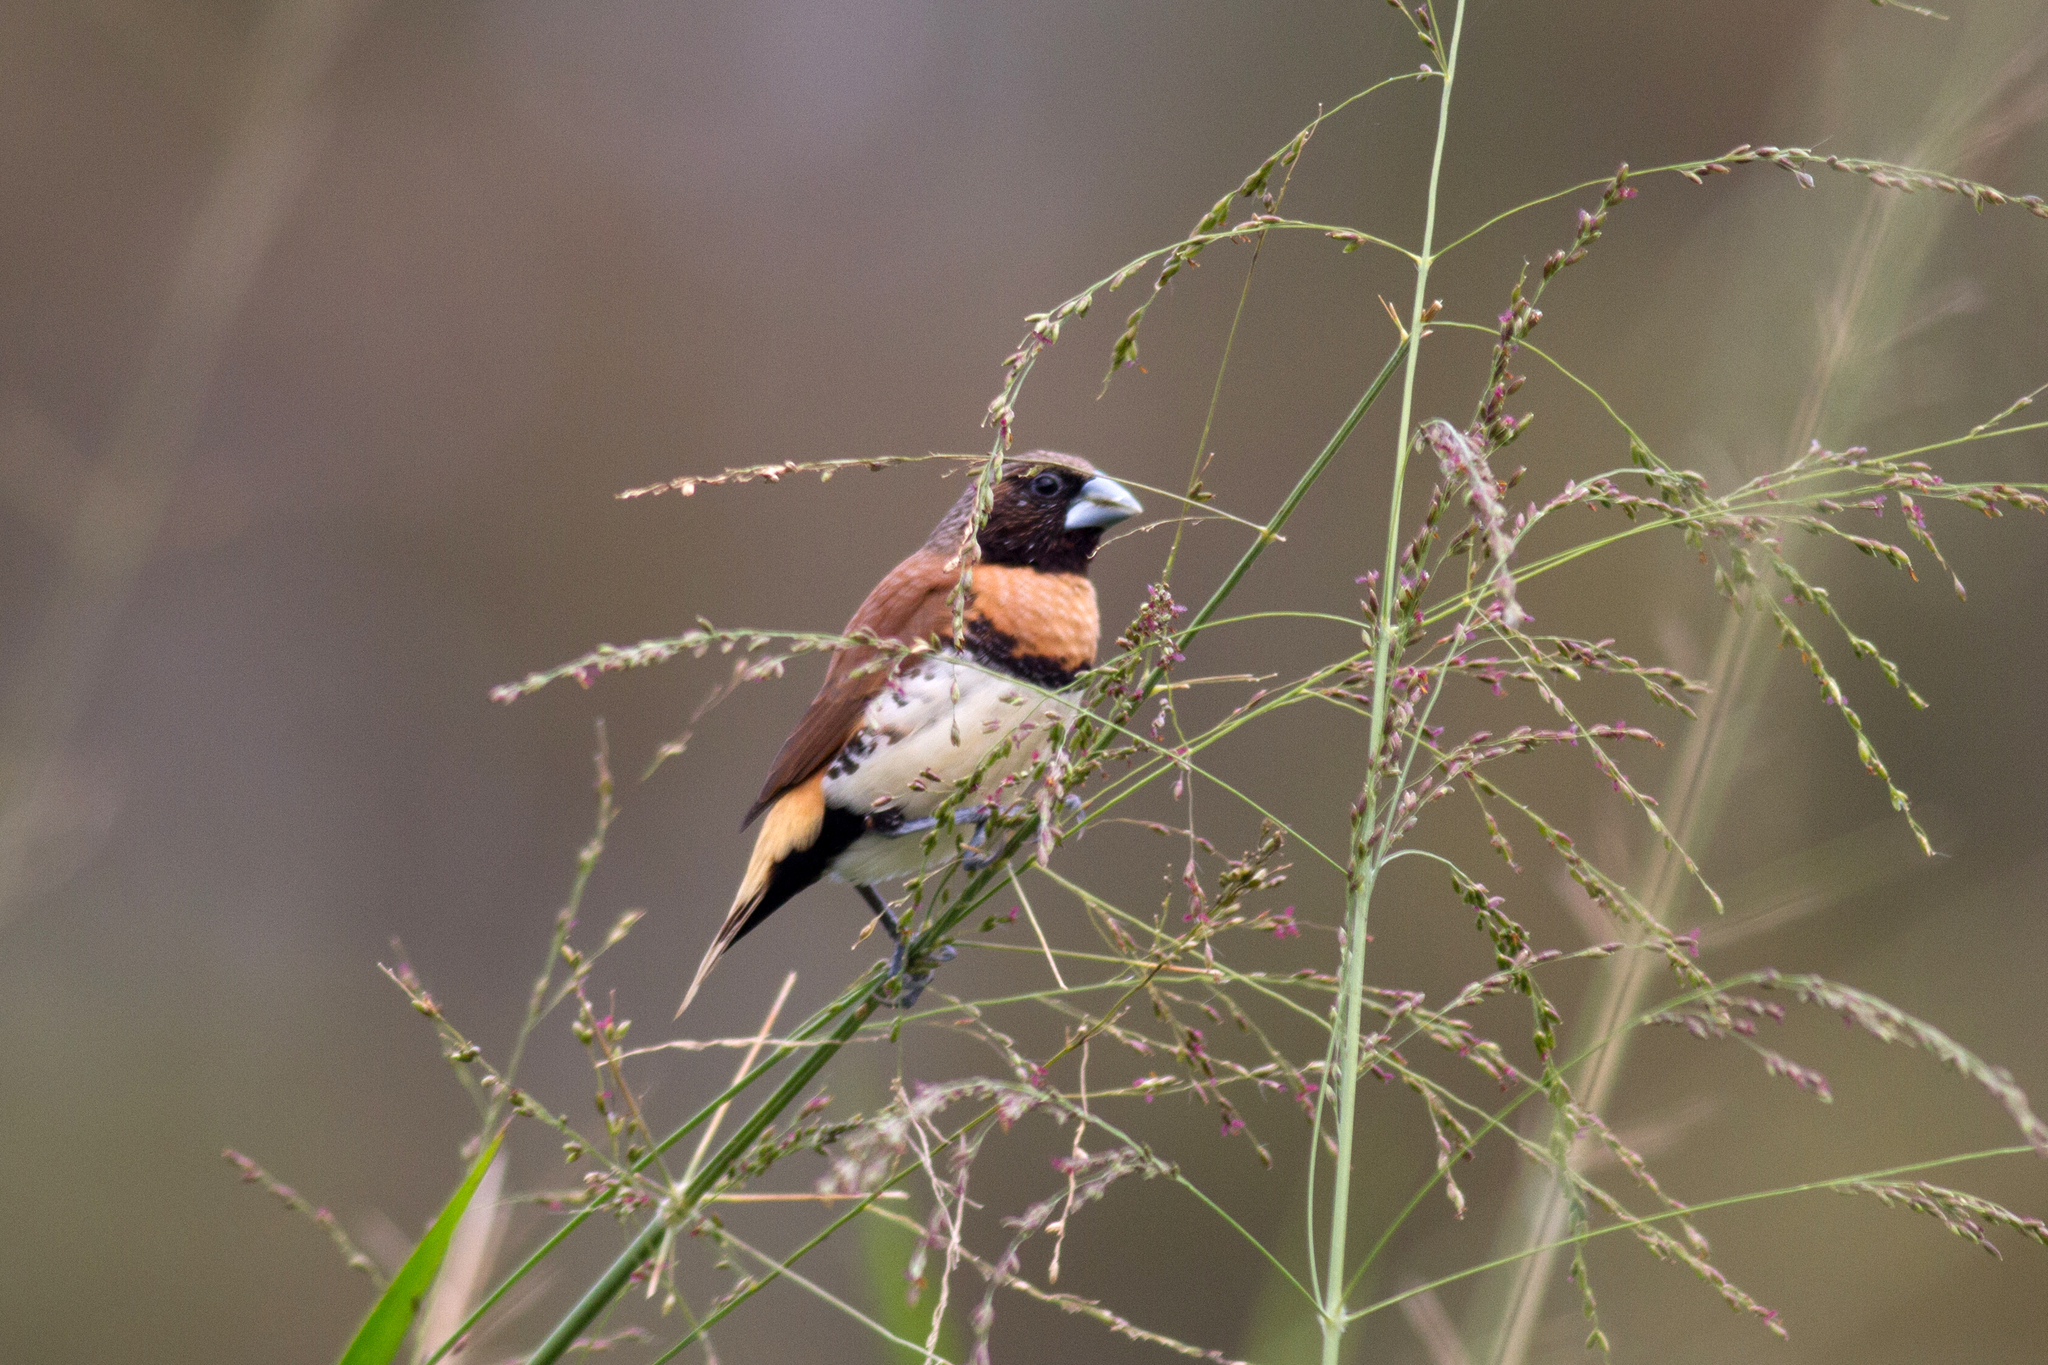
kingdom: Animalia
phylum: Chordata
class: Aves
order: Passeriformes
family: Estrildidae
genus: Lonchura
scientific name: Lonchura castaneothorax
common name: Chestnut-breasted mannikin
